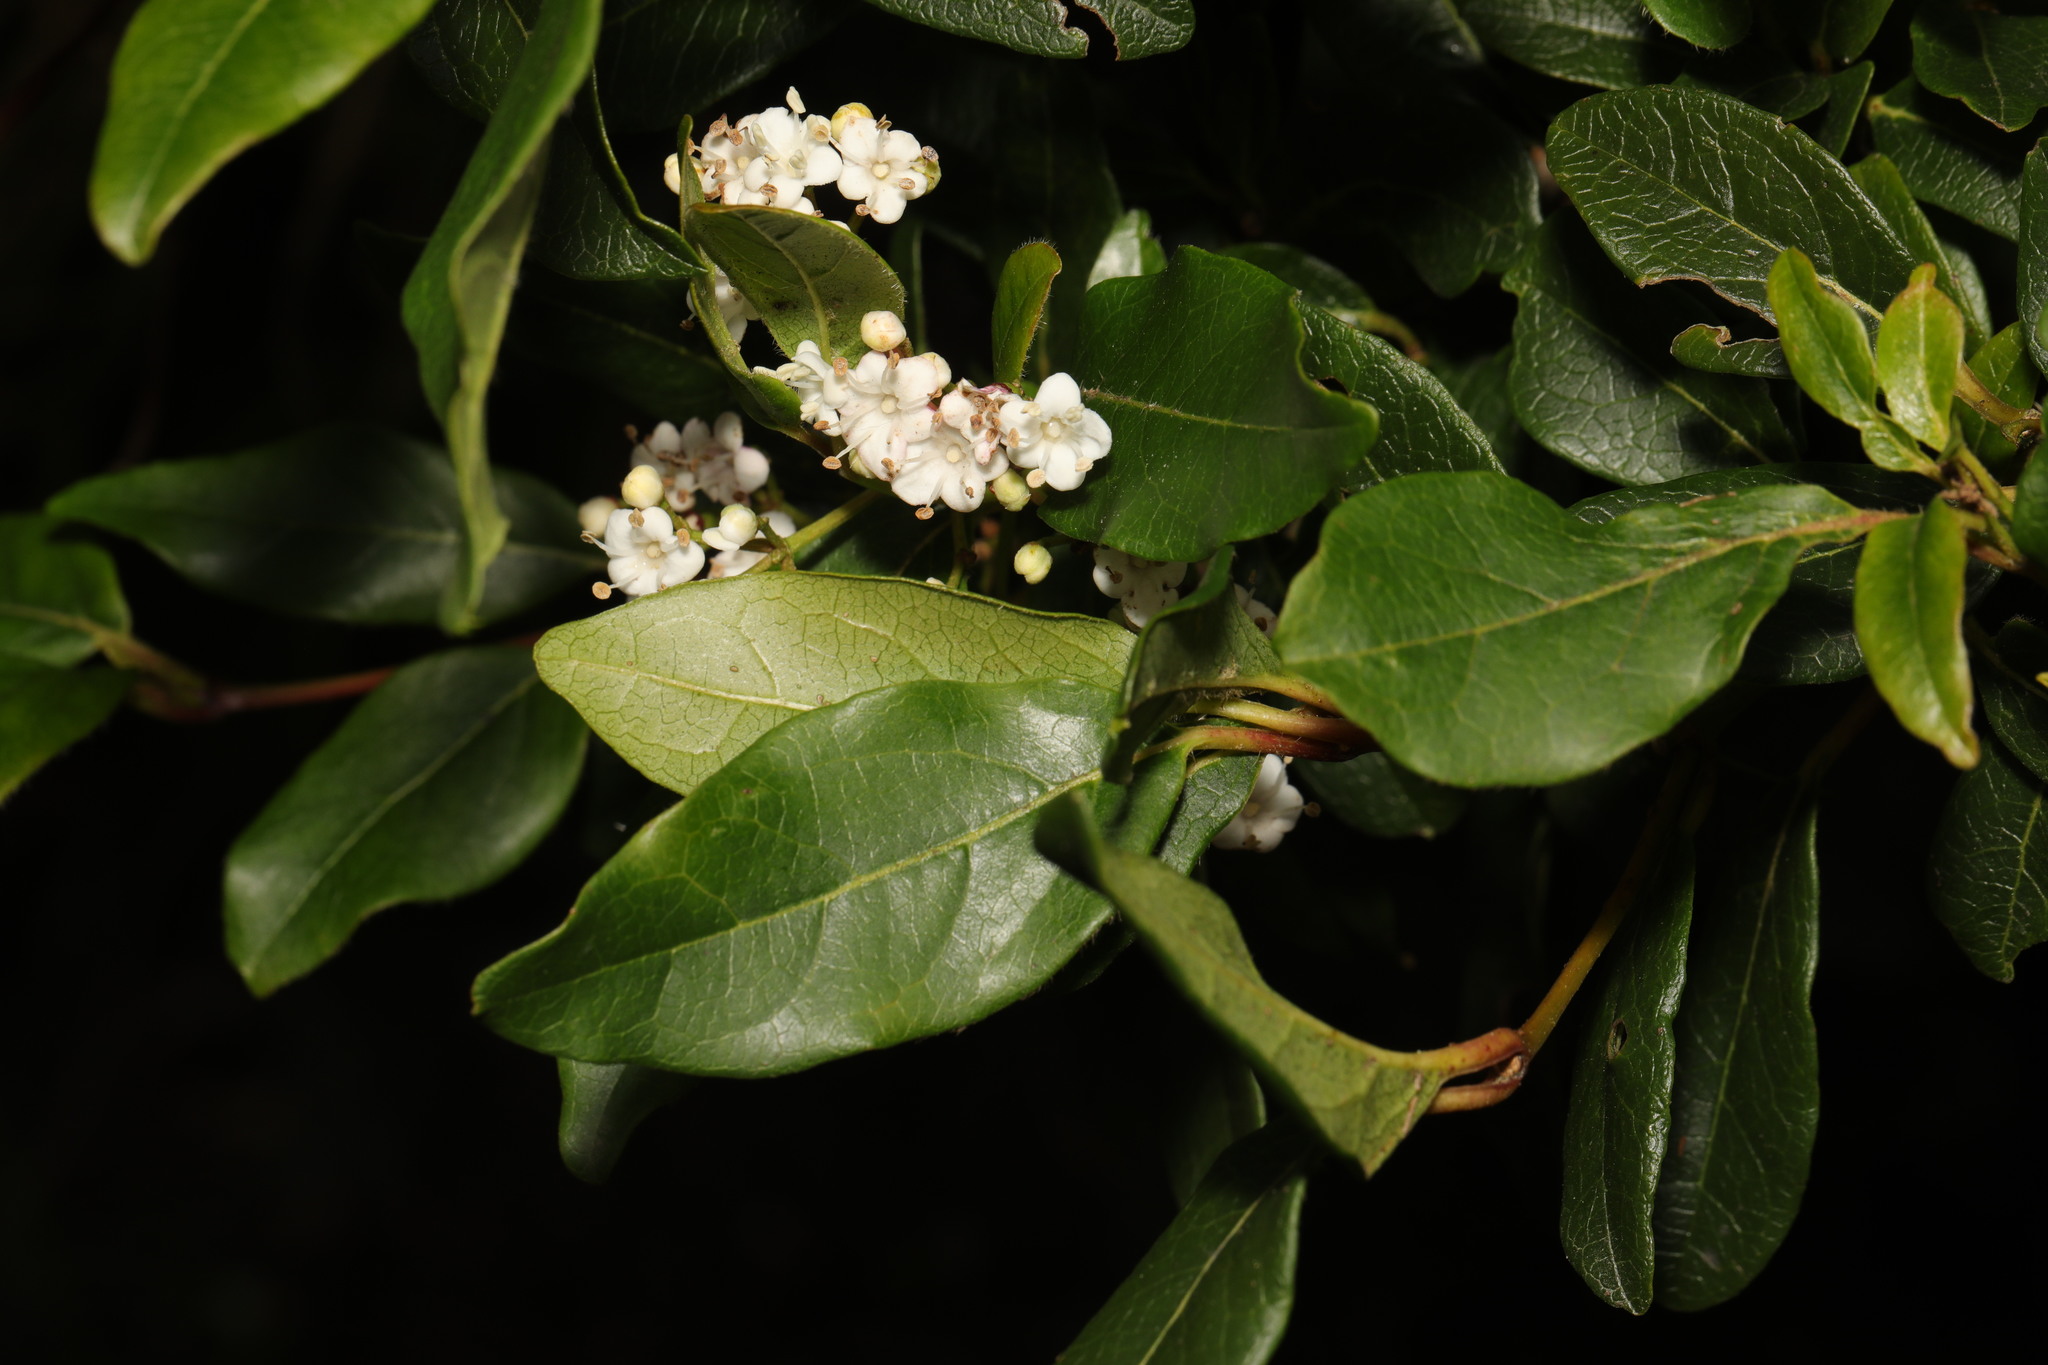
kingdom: Plantae
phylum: Tracheophyta
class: Magnoliopsida
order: Dipsacales
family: Viburnaceae
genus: Viburnum
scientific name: Viburnum tinus
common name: Laurustinus
